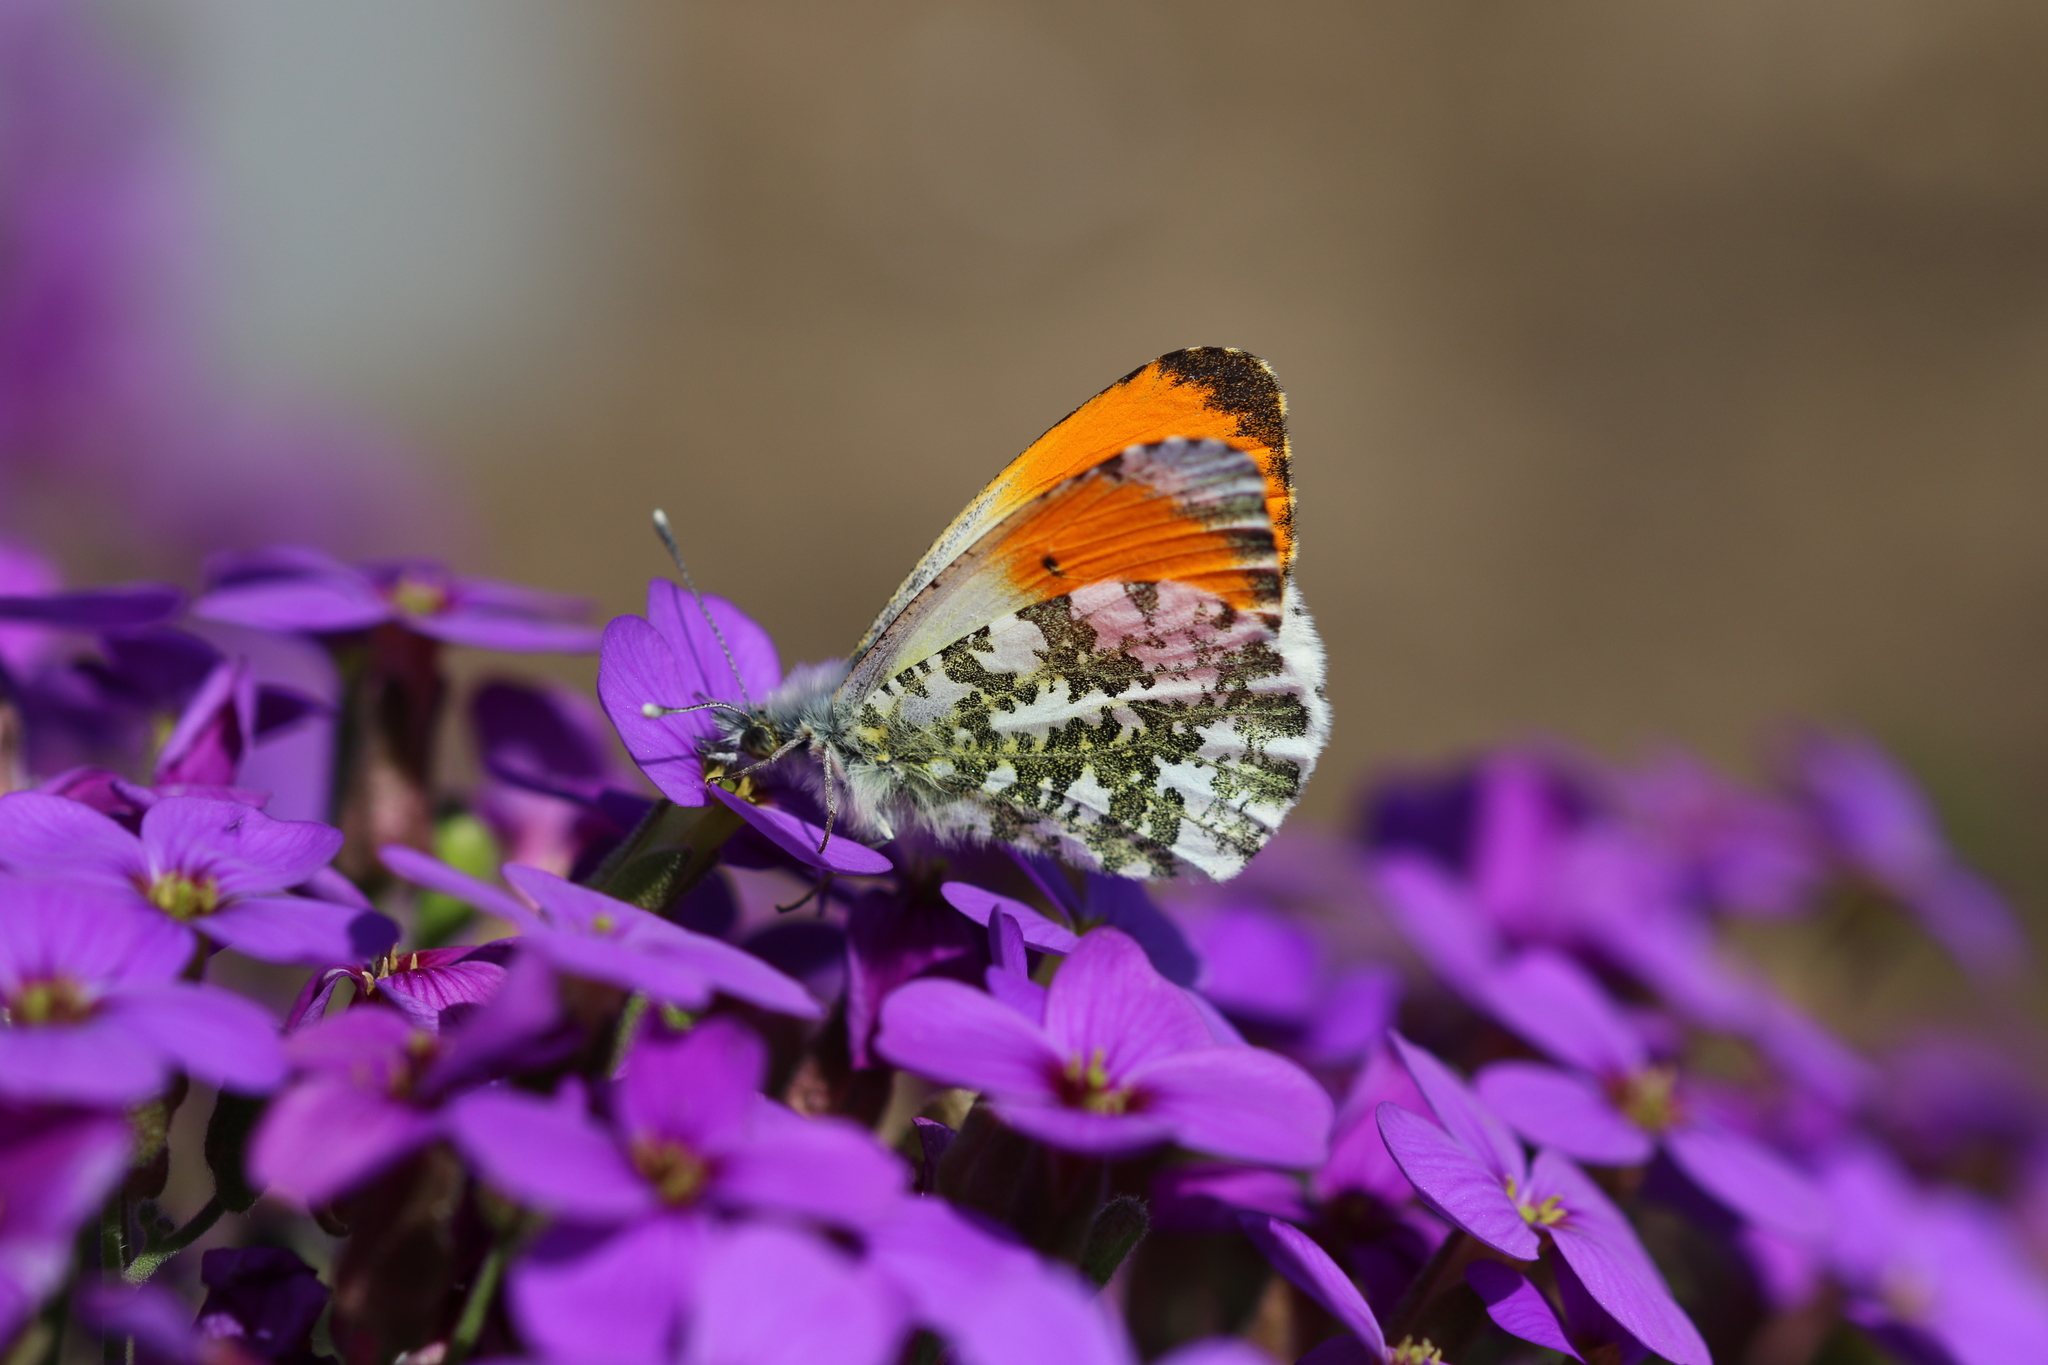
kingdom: Animalia
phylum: Arthropoda
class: Insecta
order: Lepidoptera
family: Pieridae
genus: Anthocharis
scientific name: Anthocharis cardamines
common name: Orange-tip
